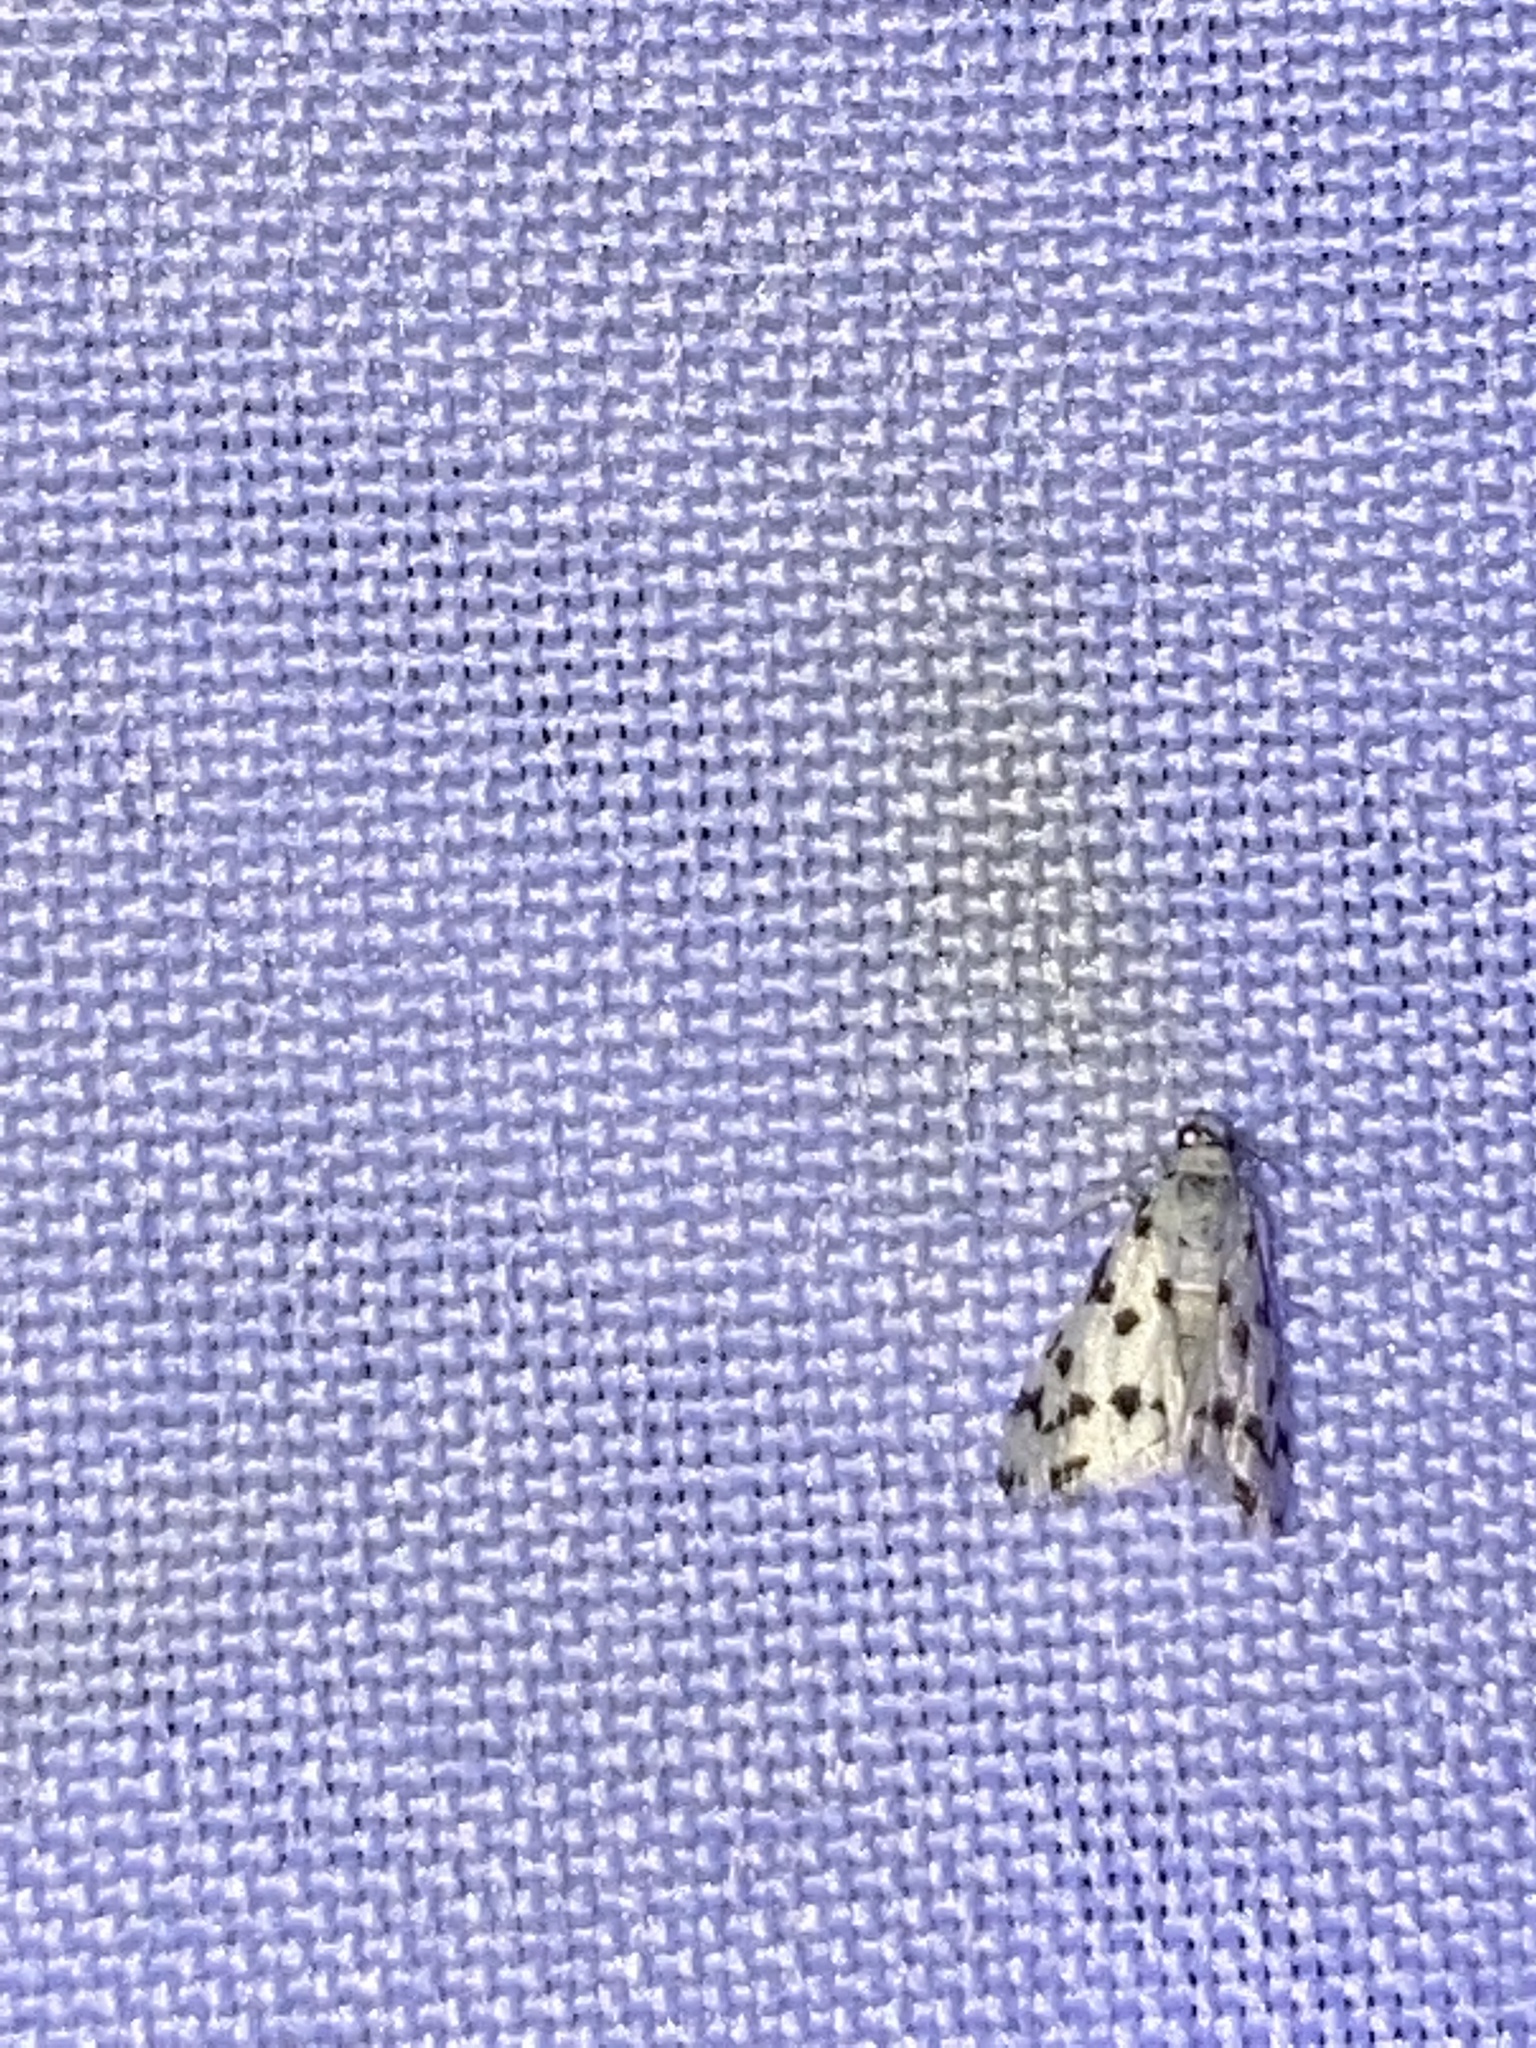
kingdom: Animalia
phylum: Arthropoda
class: Insecta
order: Lepidoptera
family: Crambidae
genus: Eustixia
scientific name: Eustixia pupula
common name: American cabbage pearl
